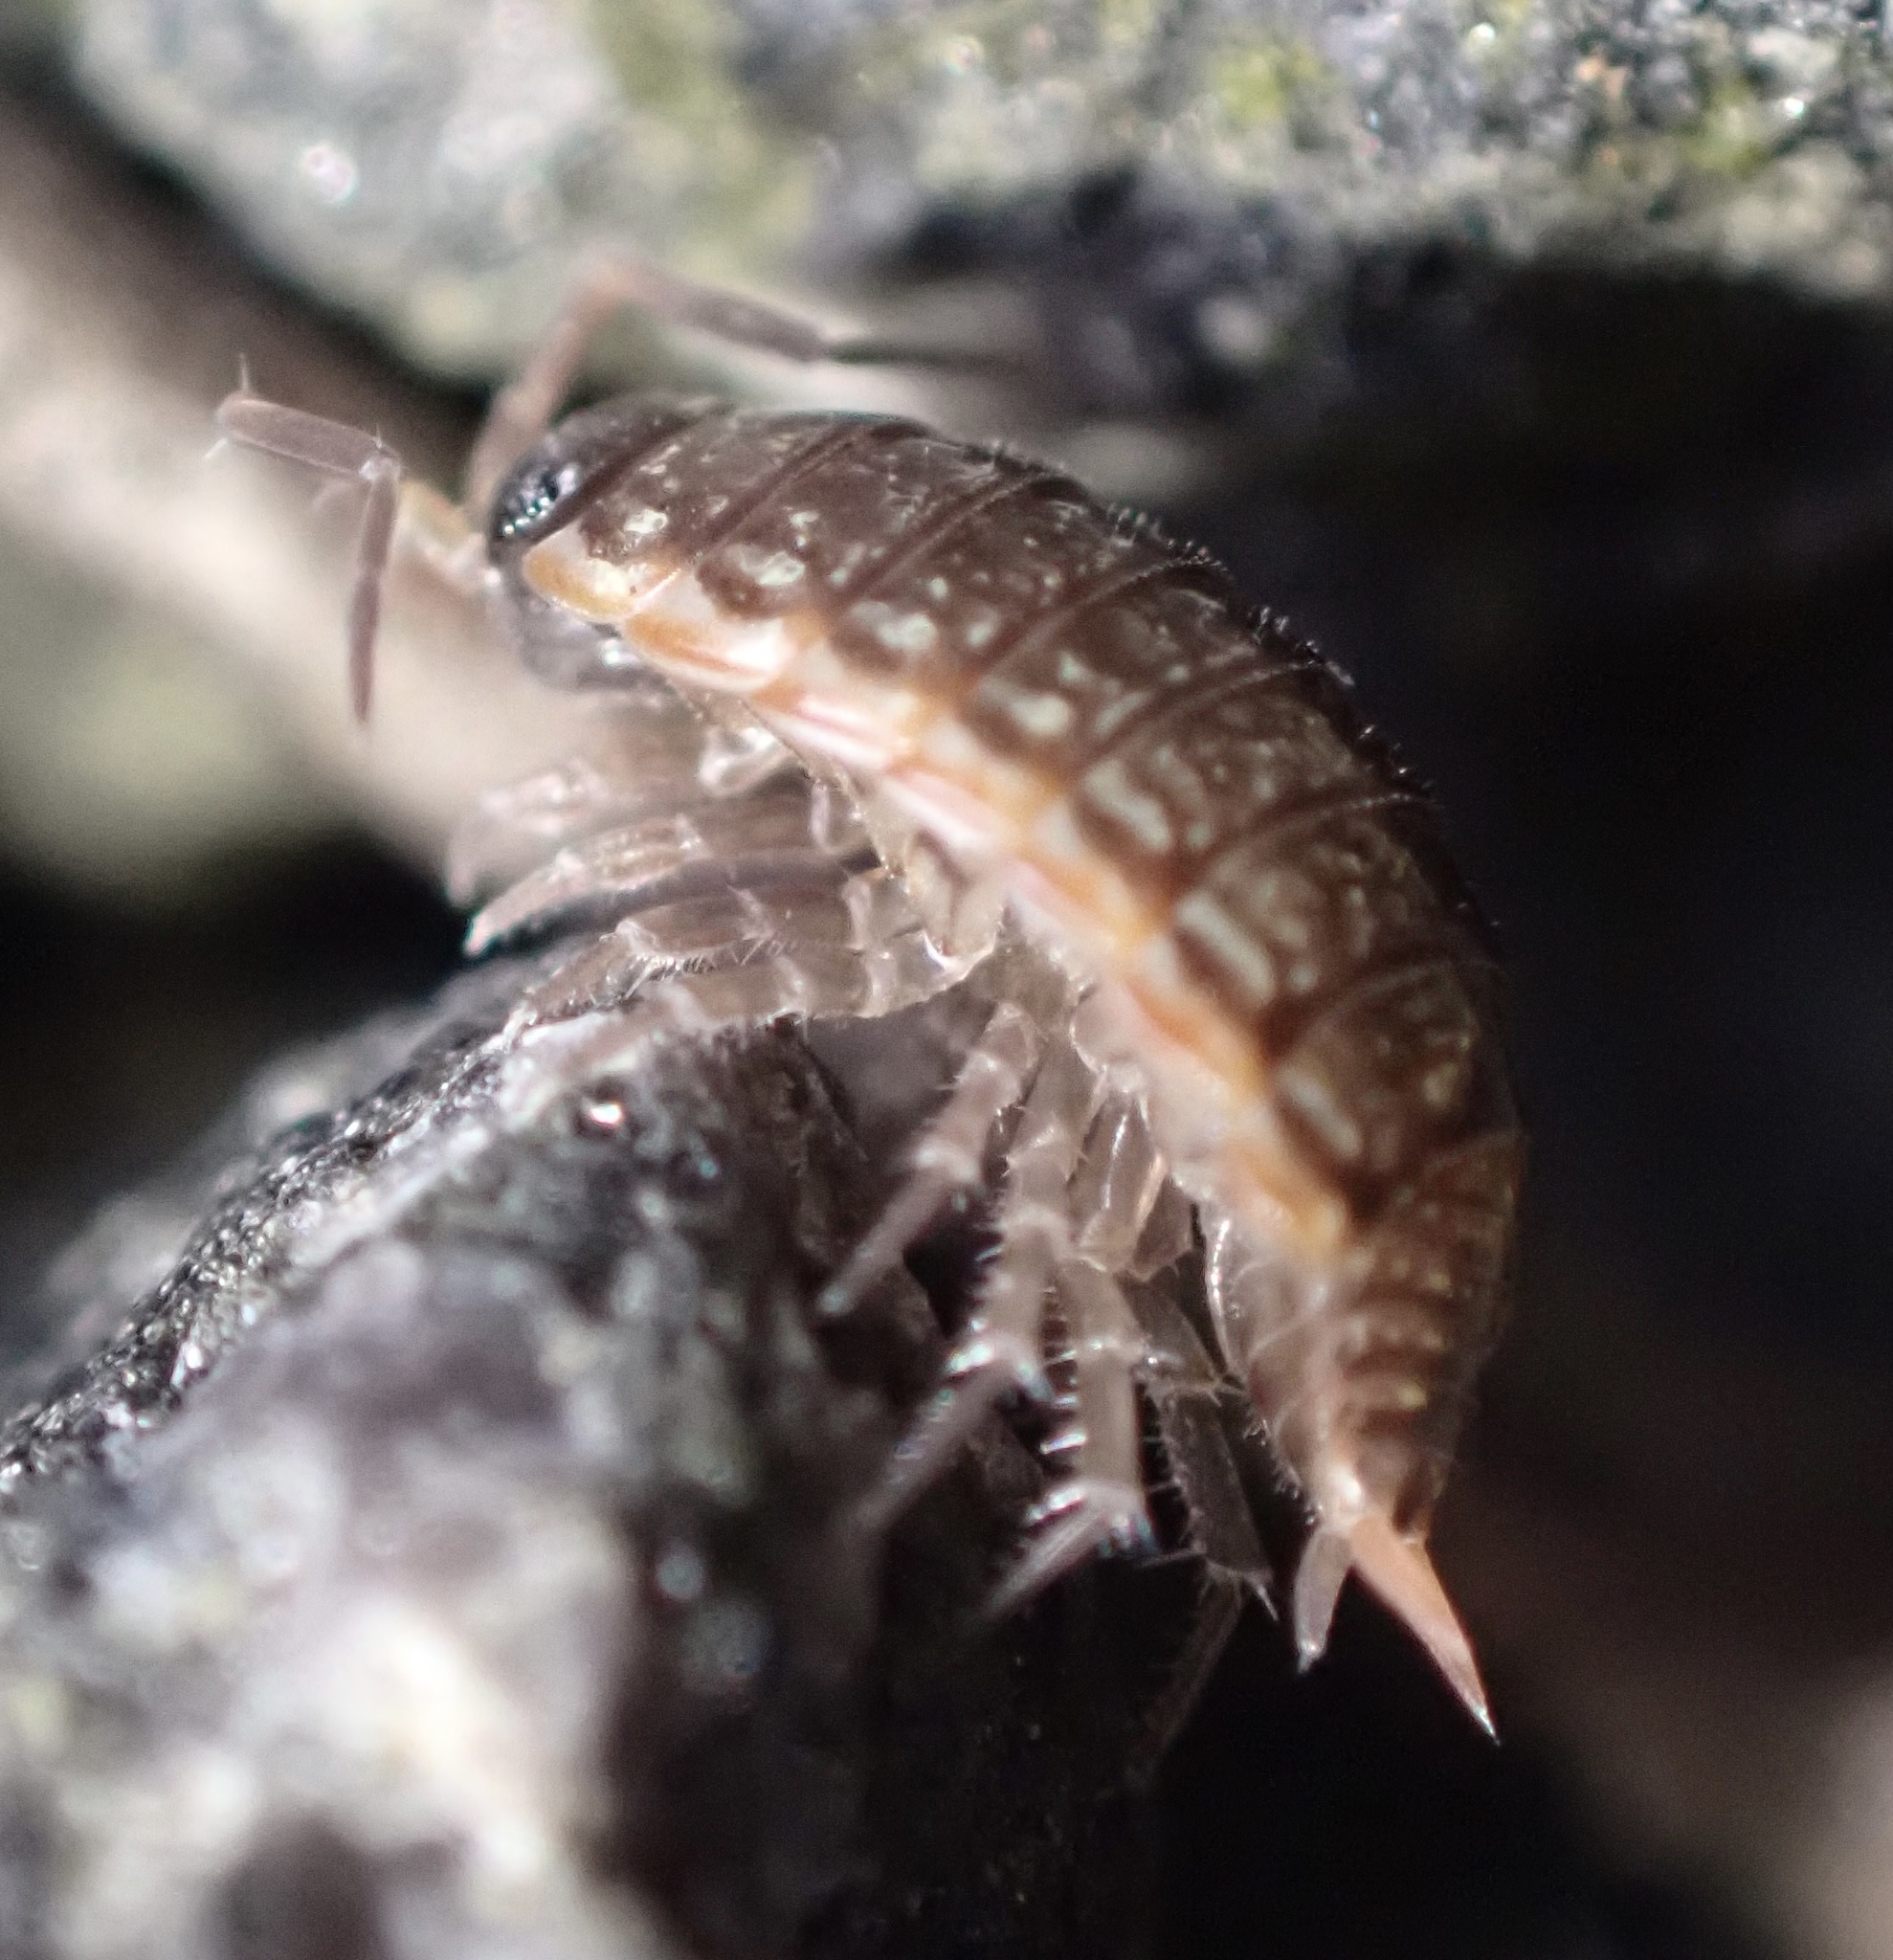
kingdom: Animalia
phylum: Arthropoda
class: Malacostraca
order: Isopoda
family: Philosciidae
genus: Philoscia
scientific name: Philoscia muscorum
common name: Common striped woodlouse
